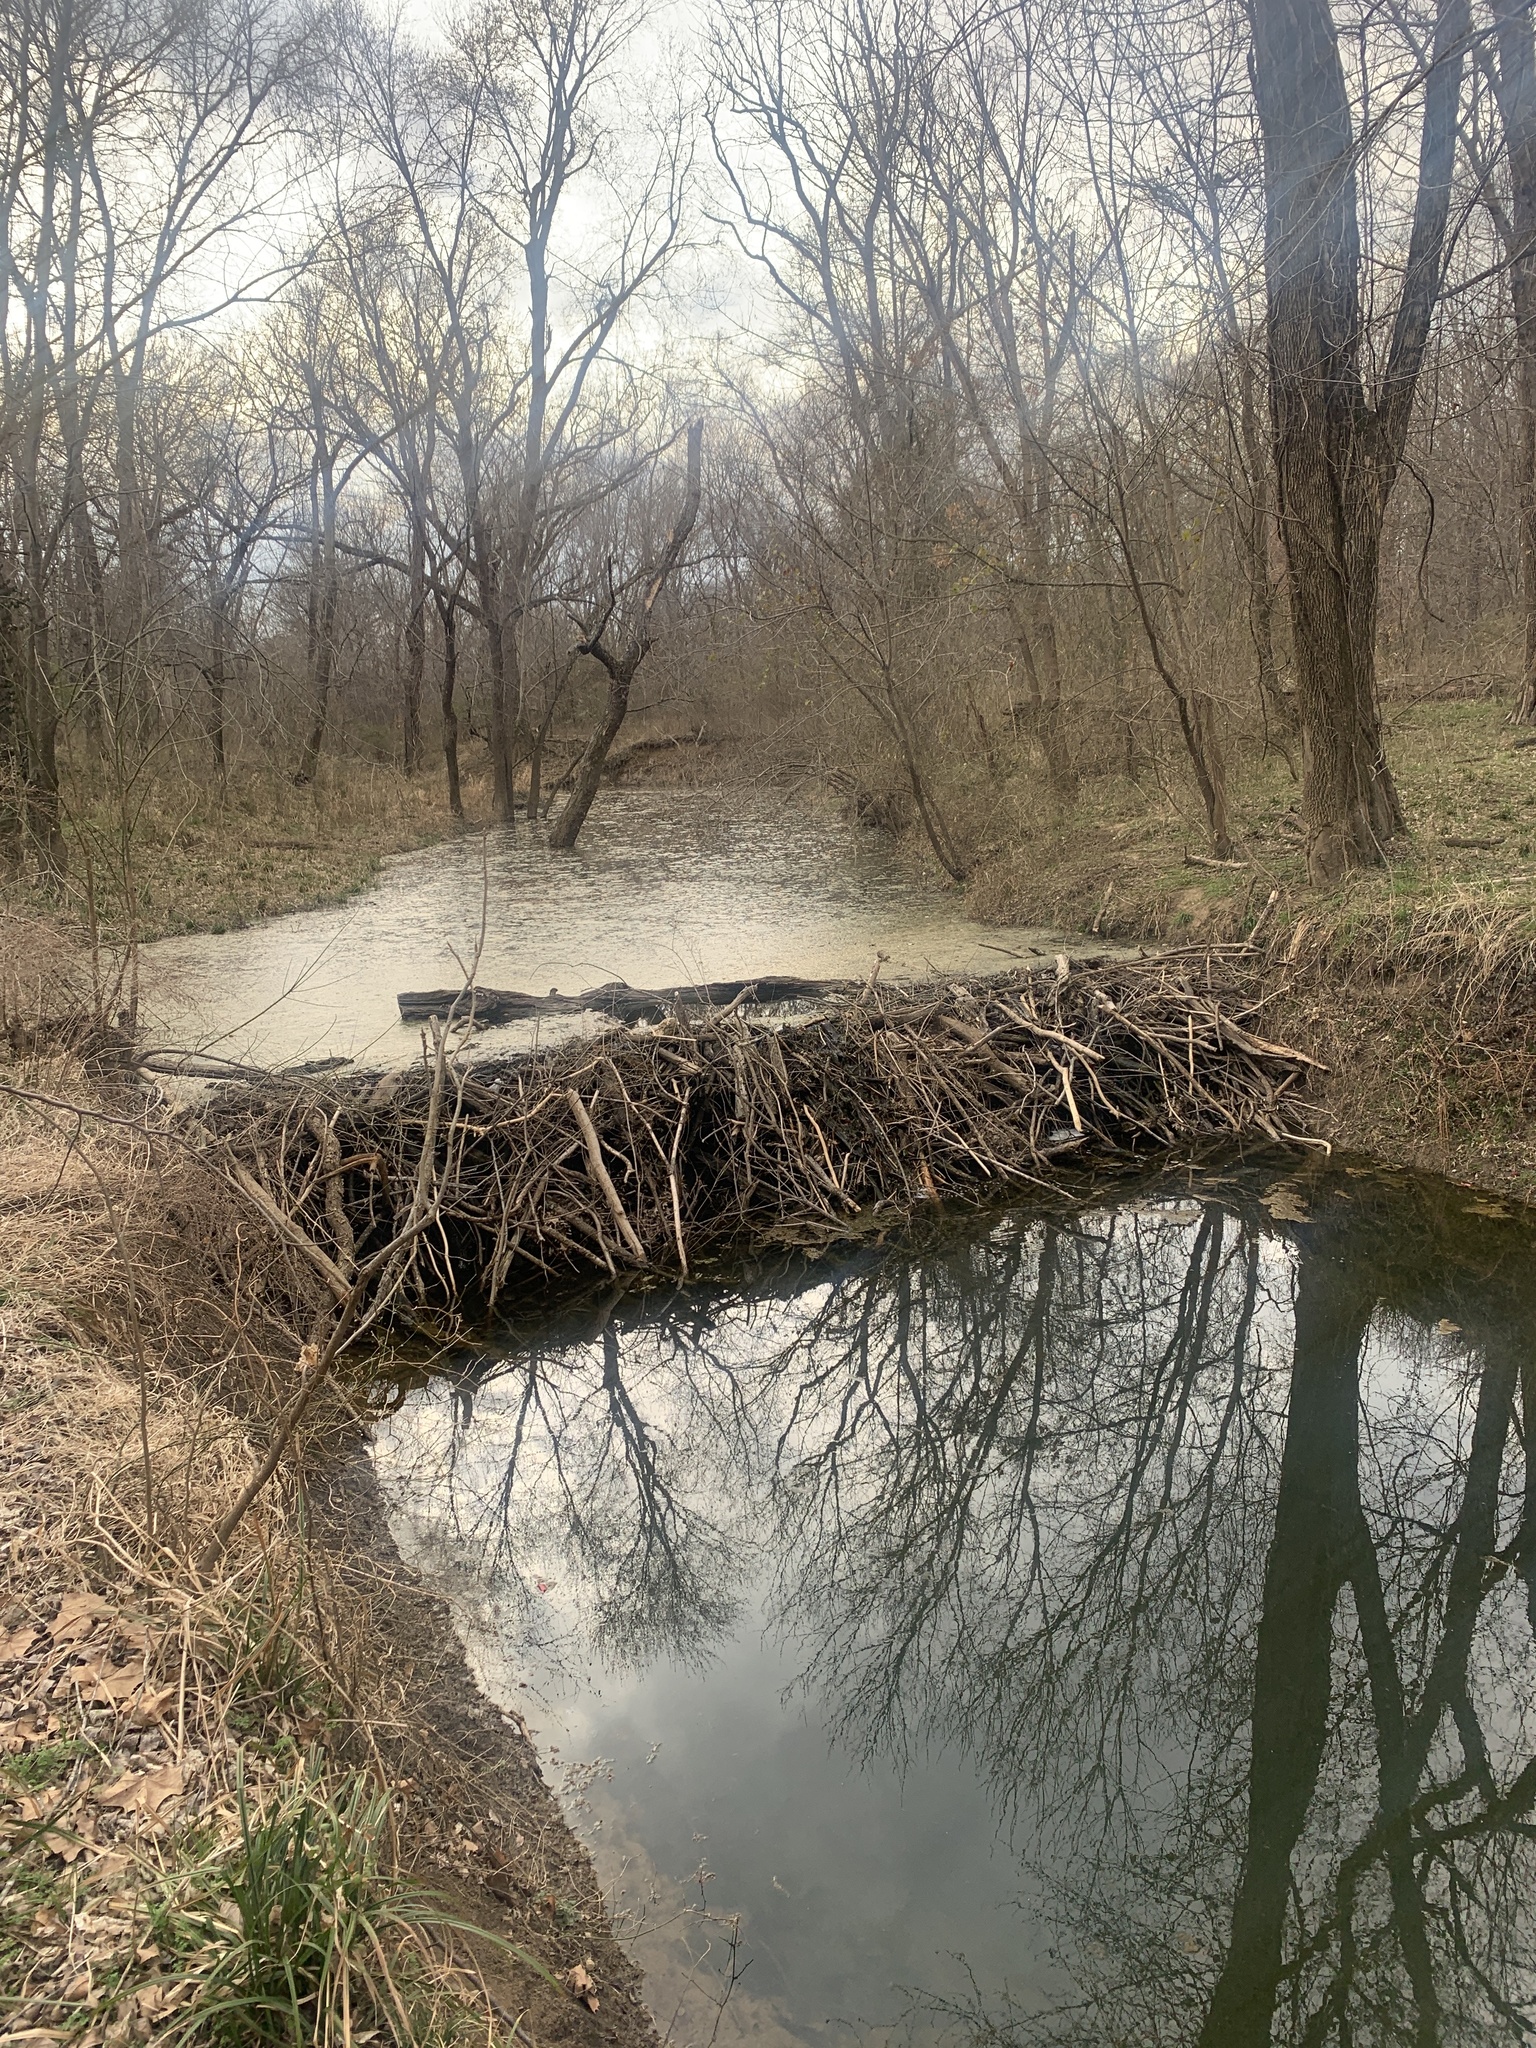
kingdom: Animalia
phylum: Chordata
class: Mammalia
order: Rodentia
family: Castoridae
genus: Castor
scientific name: Castor canadensis
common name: American beaver
